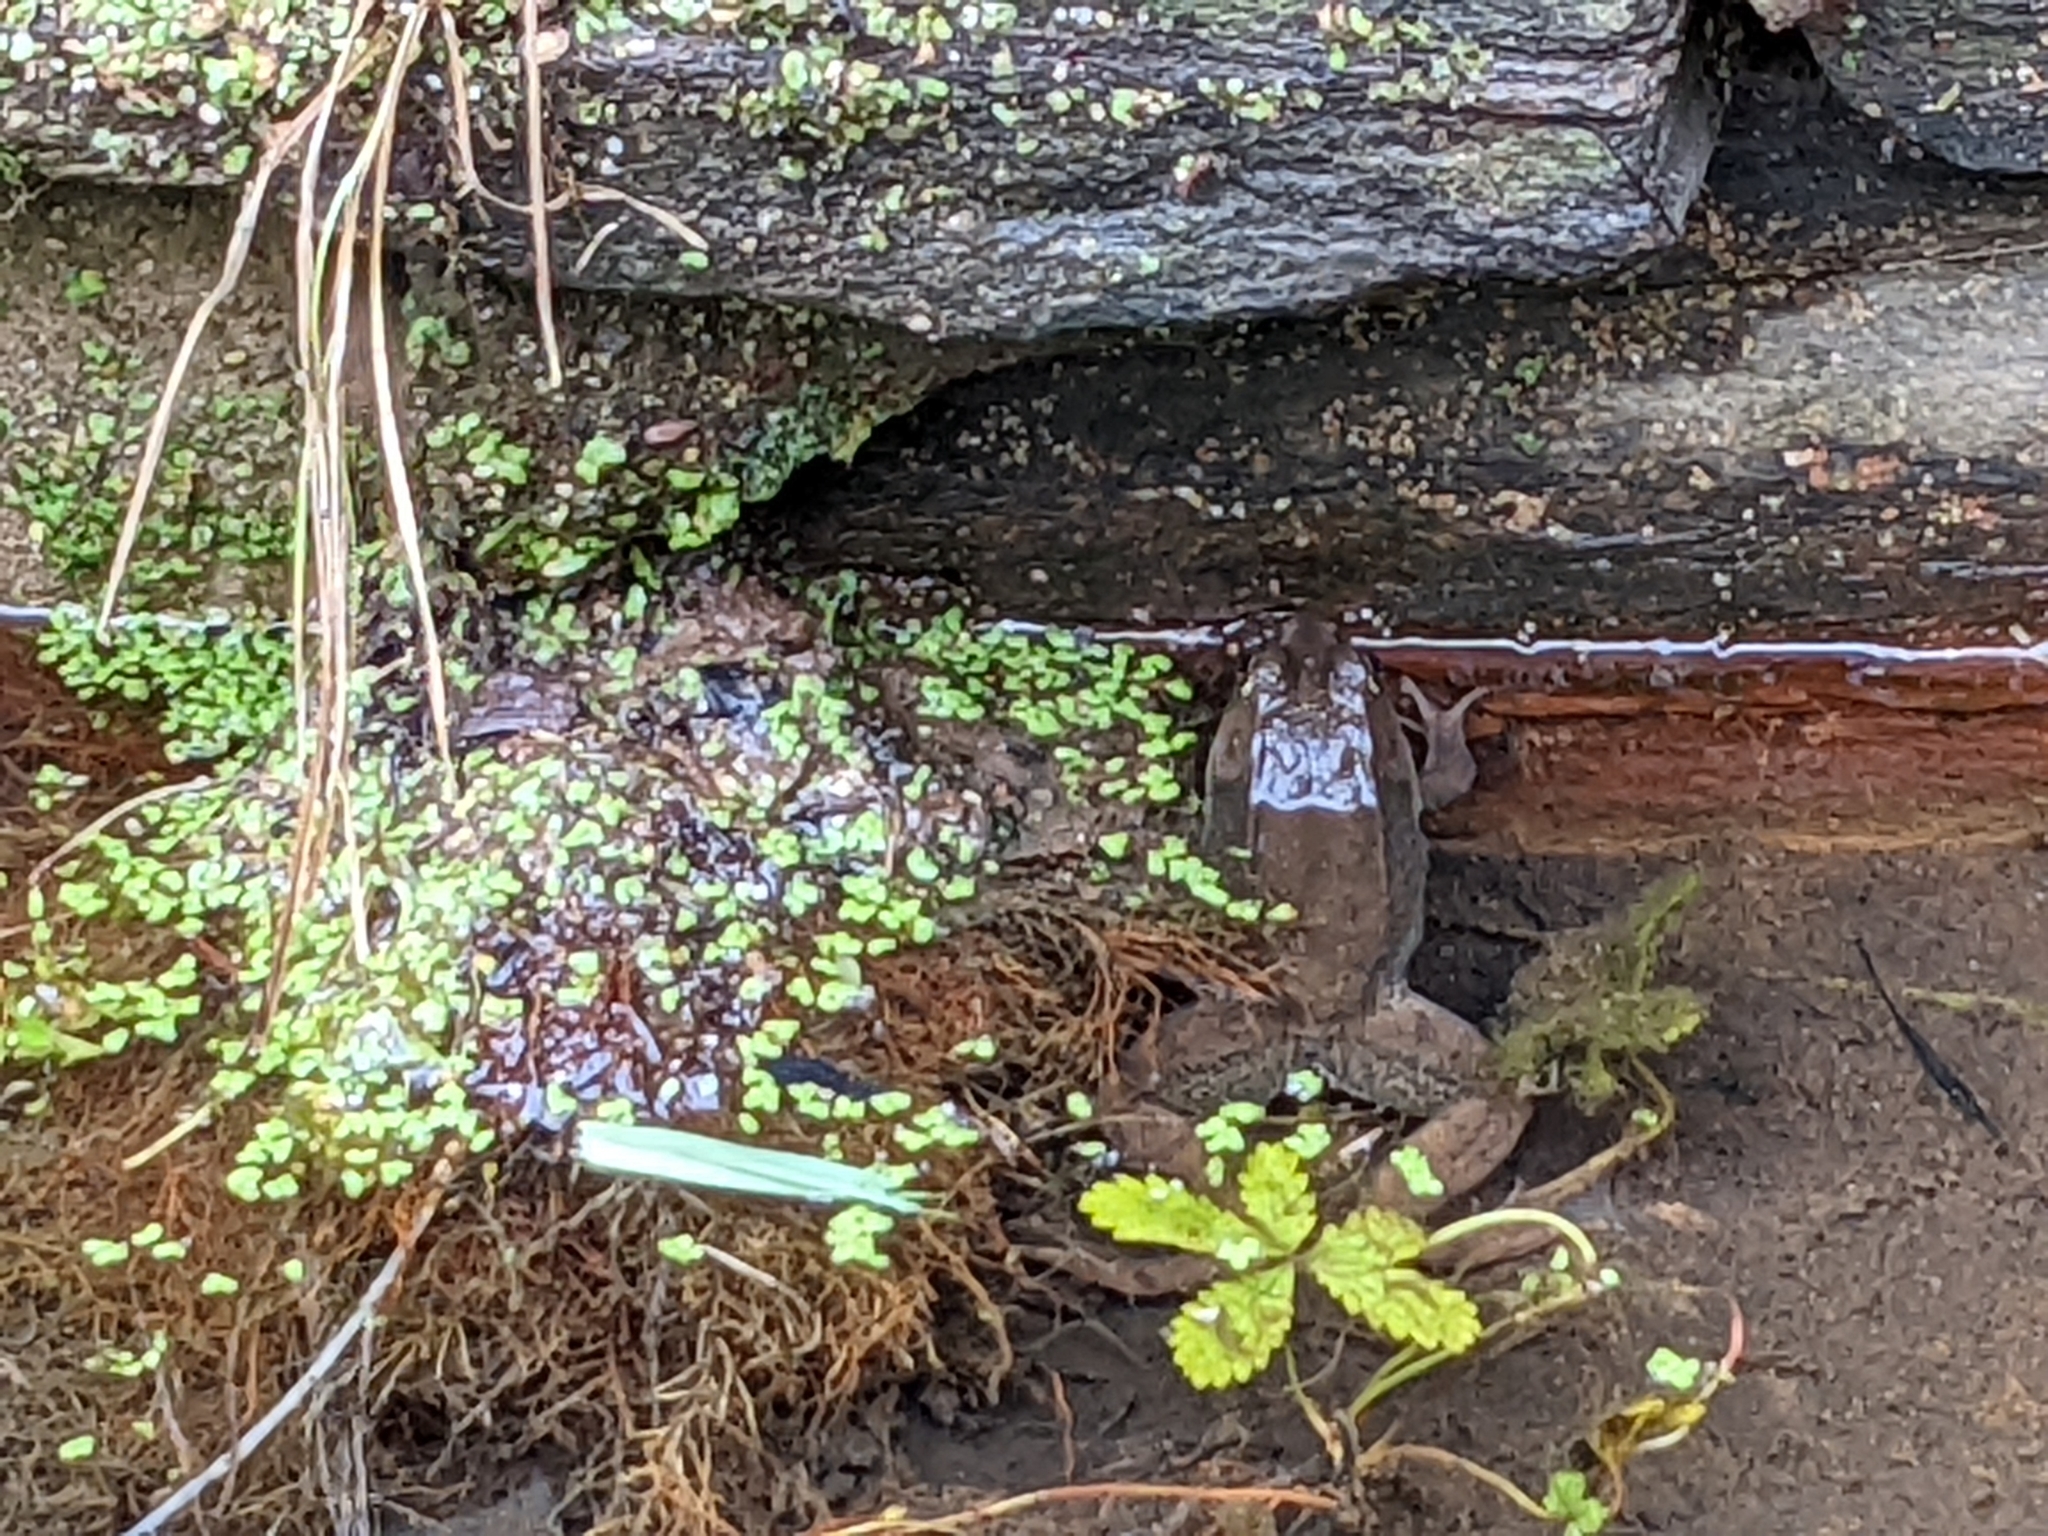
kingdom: Animalia
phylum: Chordata
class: Amphibia
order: Anura
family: Ranidae
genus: Lithobates
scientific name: Lithobates clamitans
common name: Green frog
